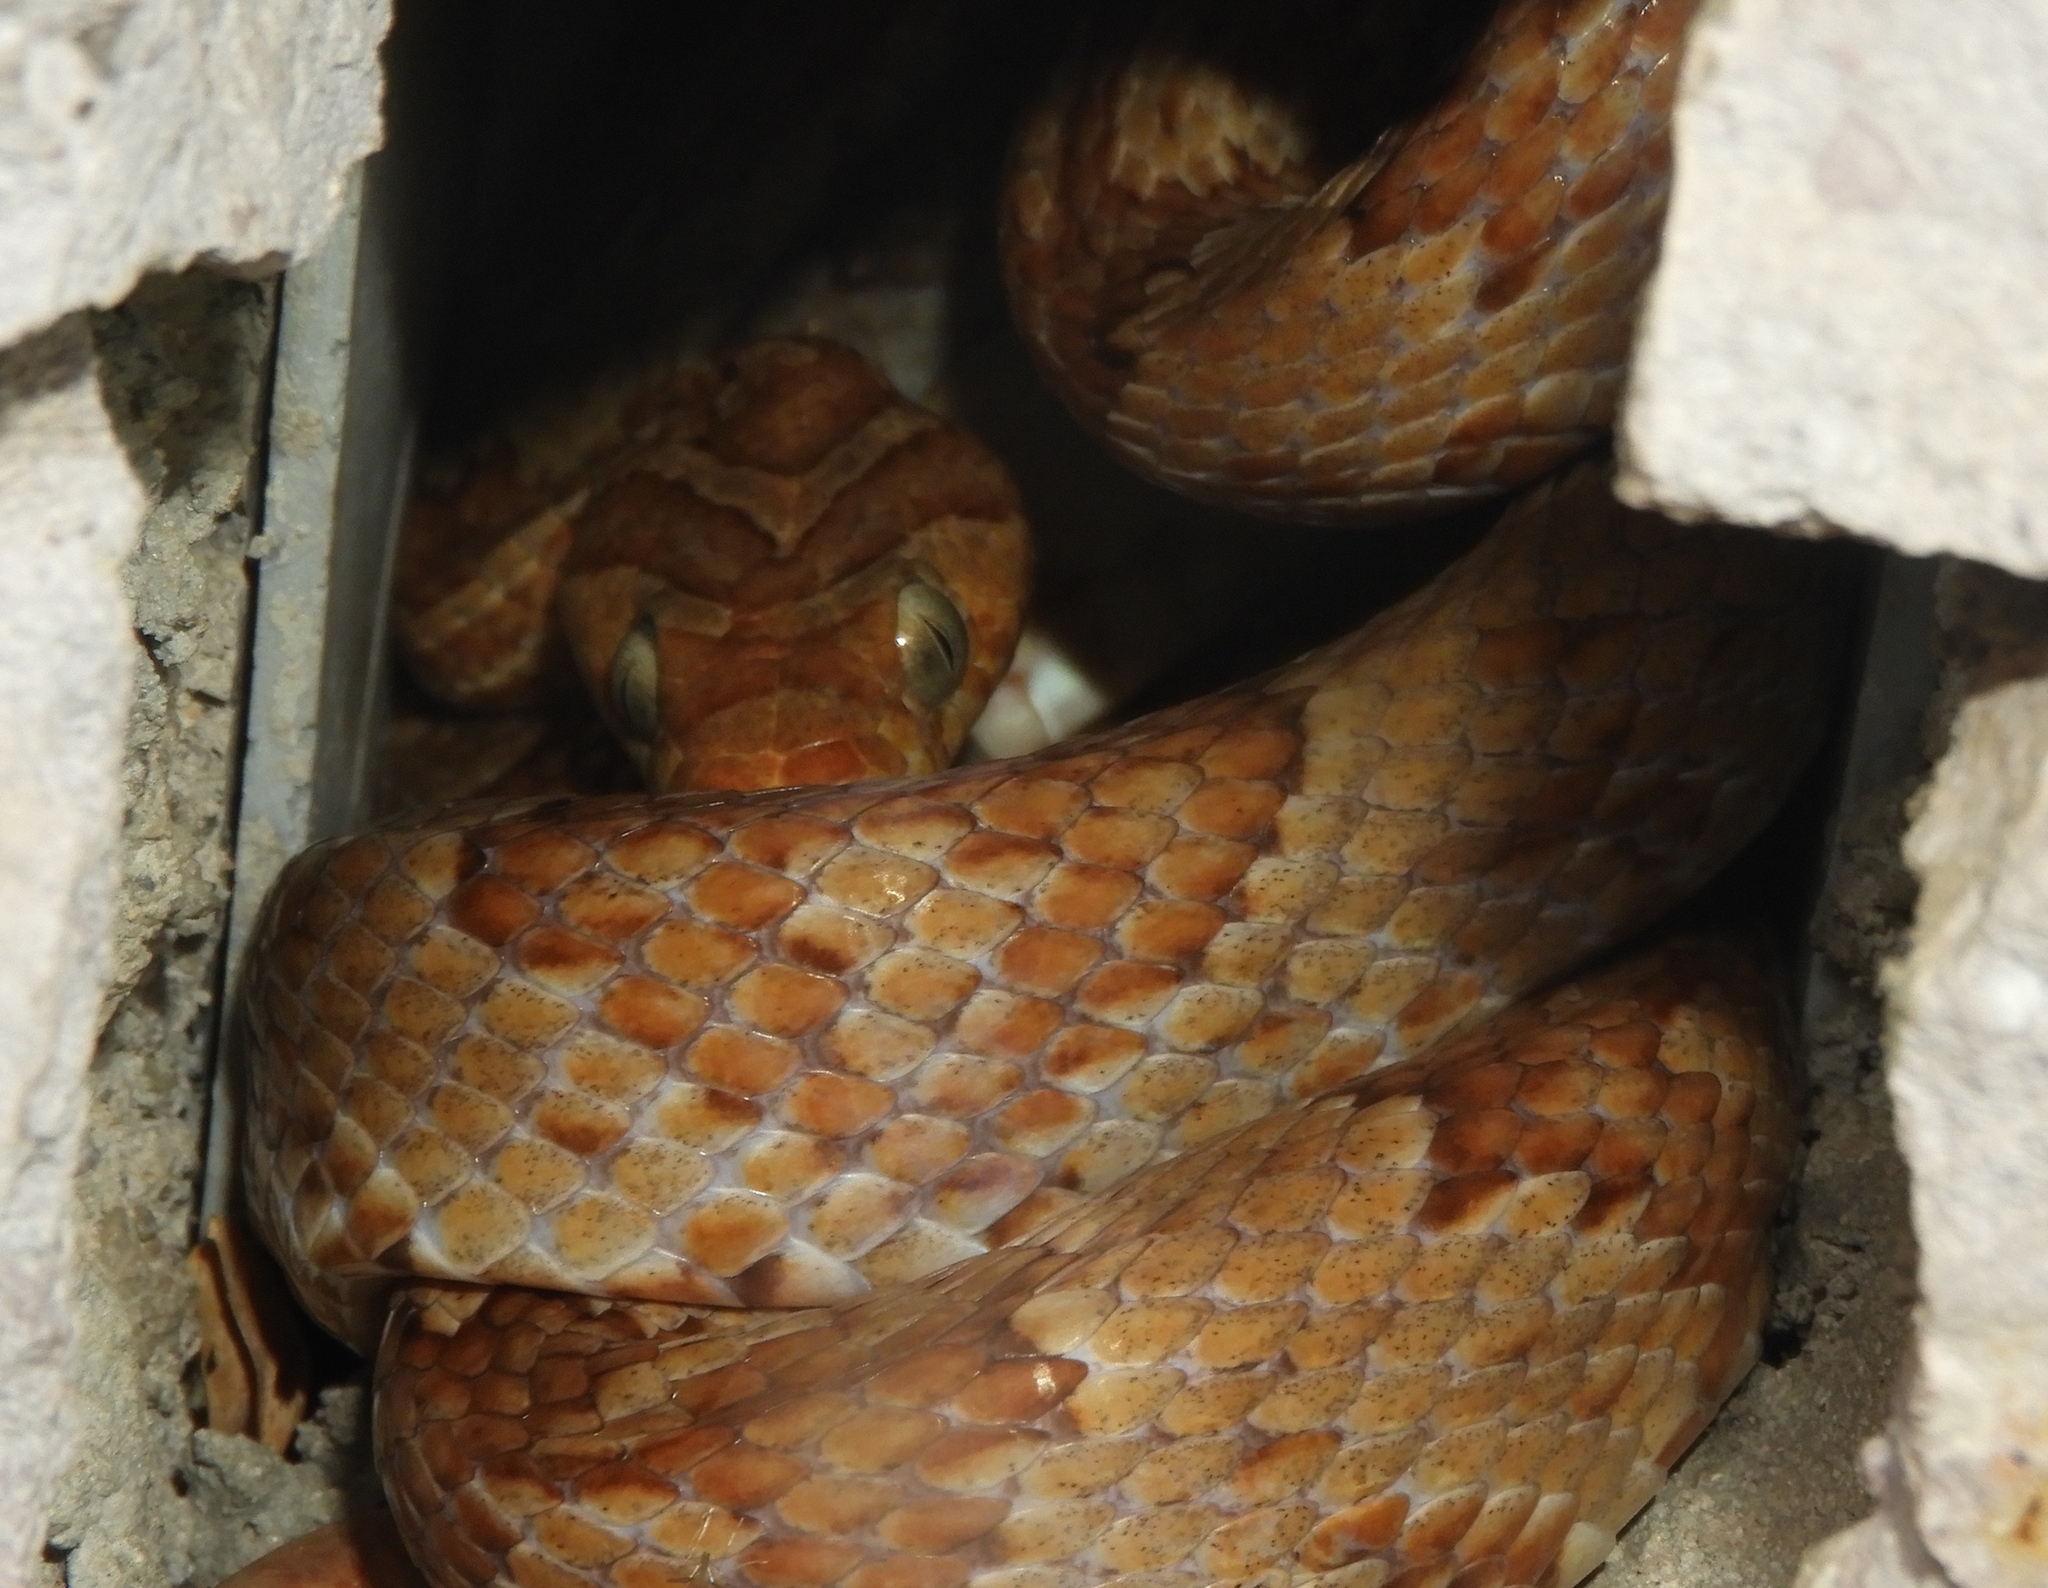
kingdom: Animalia
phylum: Chordata
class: Squamata
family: Colubridae
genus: Trimorphodon
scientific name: Trimorphodon paucimaculatus
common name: Sinaloan lyresnake
